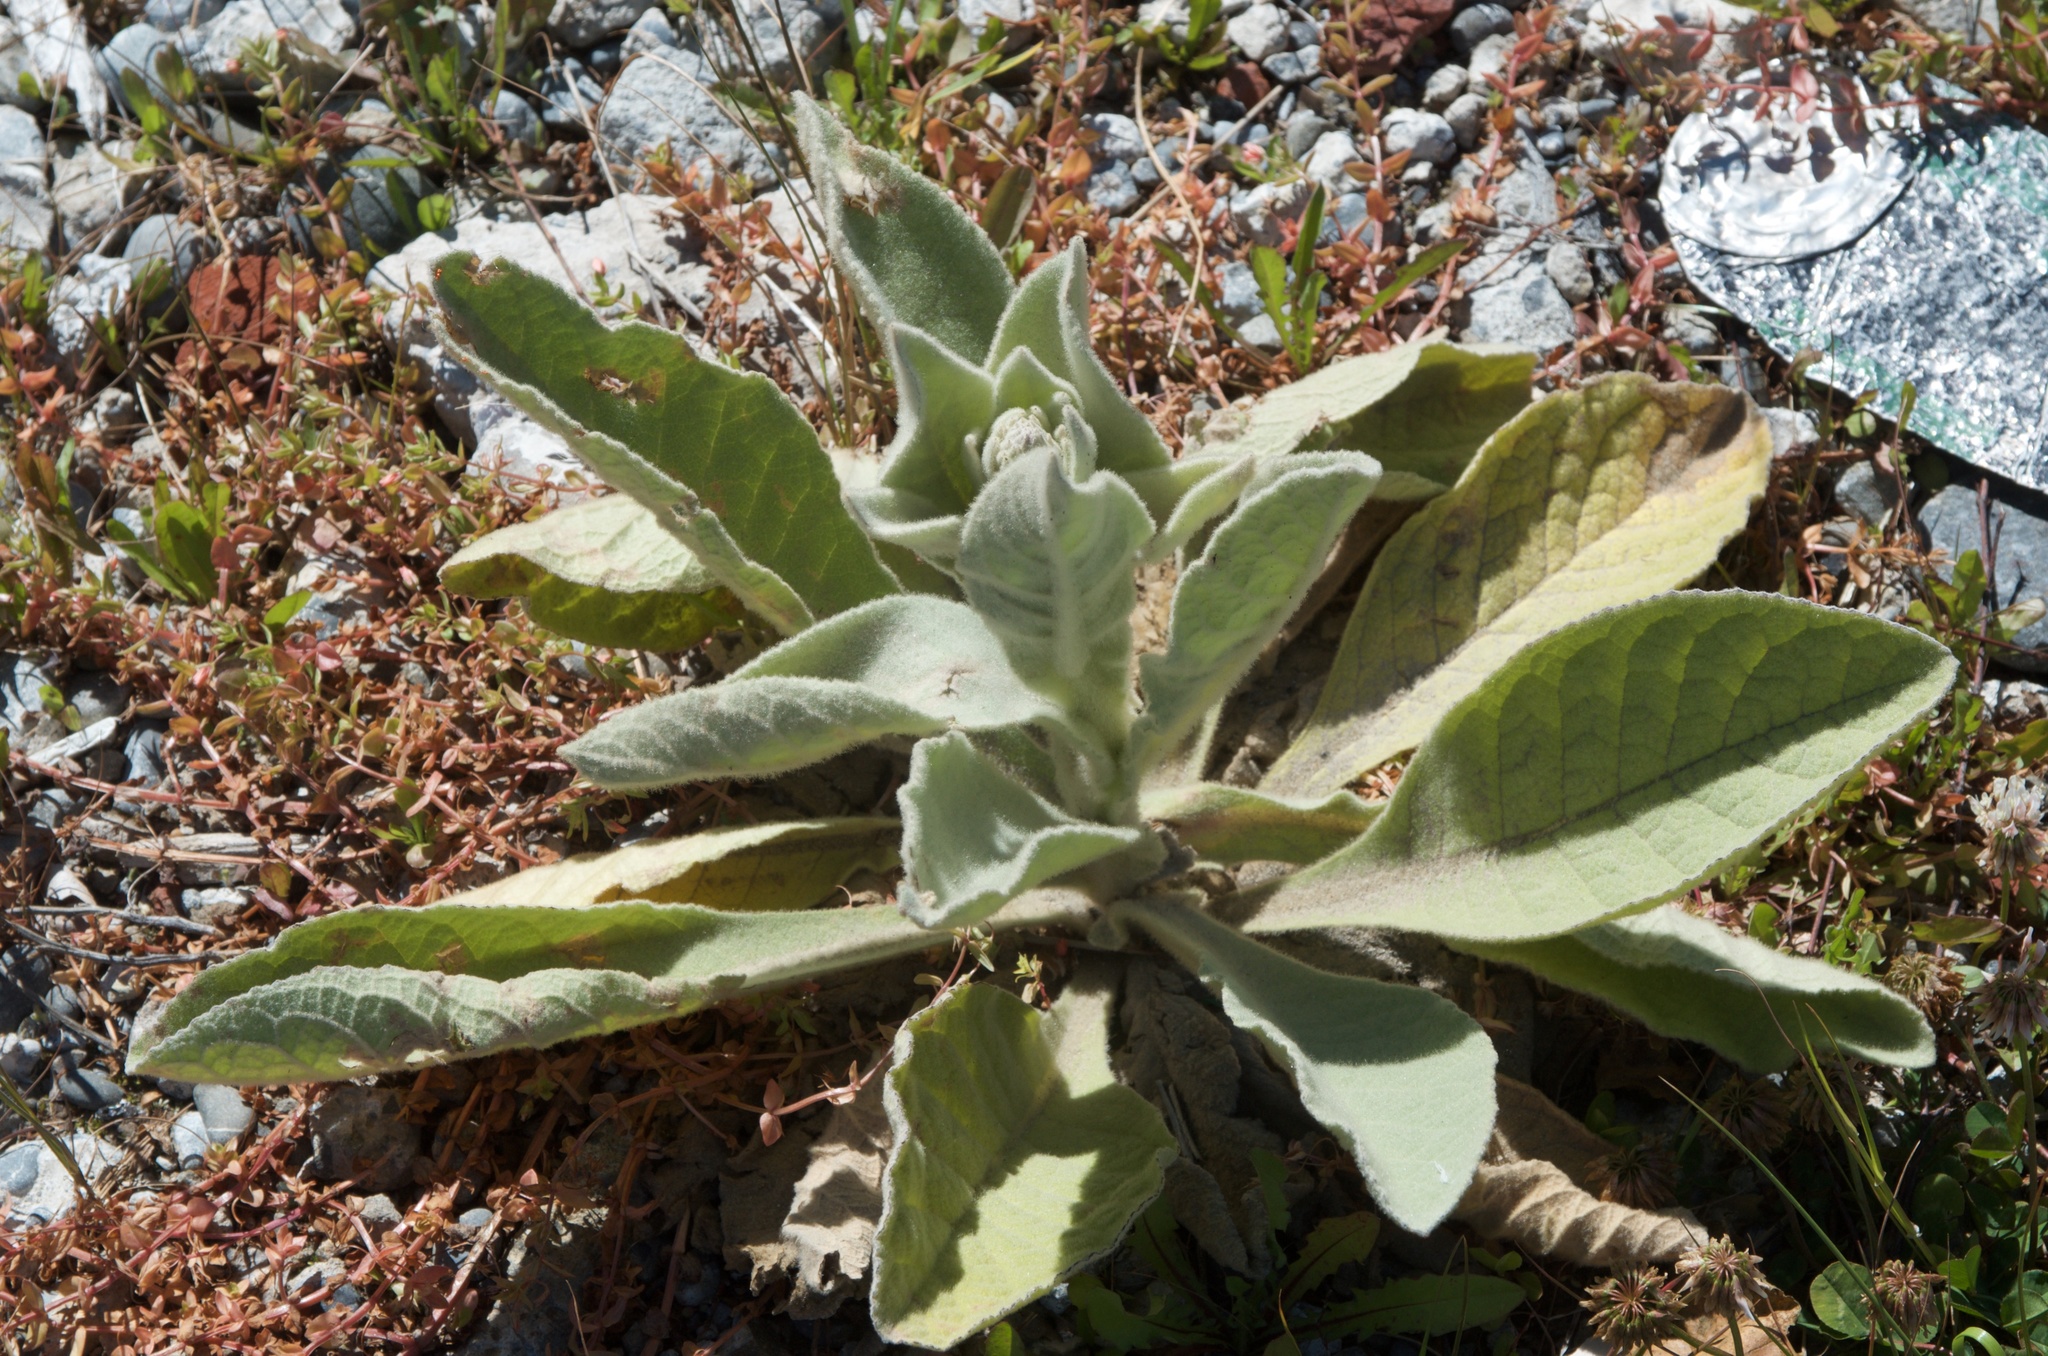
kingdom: Plantae
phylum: Tracheophyta
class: Magnoliopsida
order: Lamiales
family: Scrophulariaceae
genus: Verbascum
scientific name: Verbascum thapsus
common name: Common mullein
